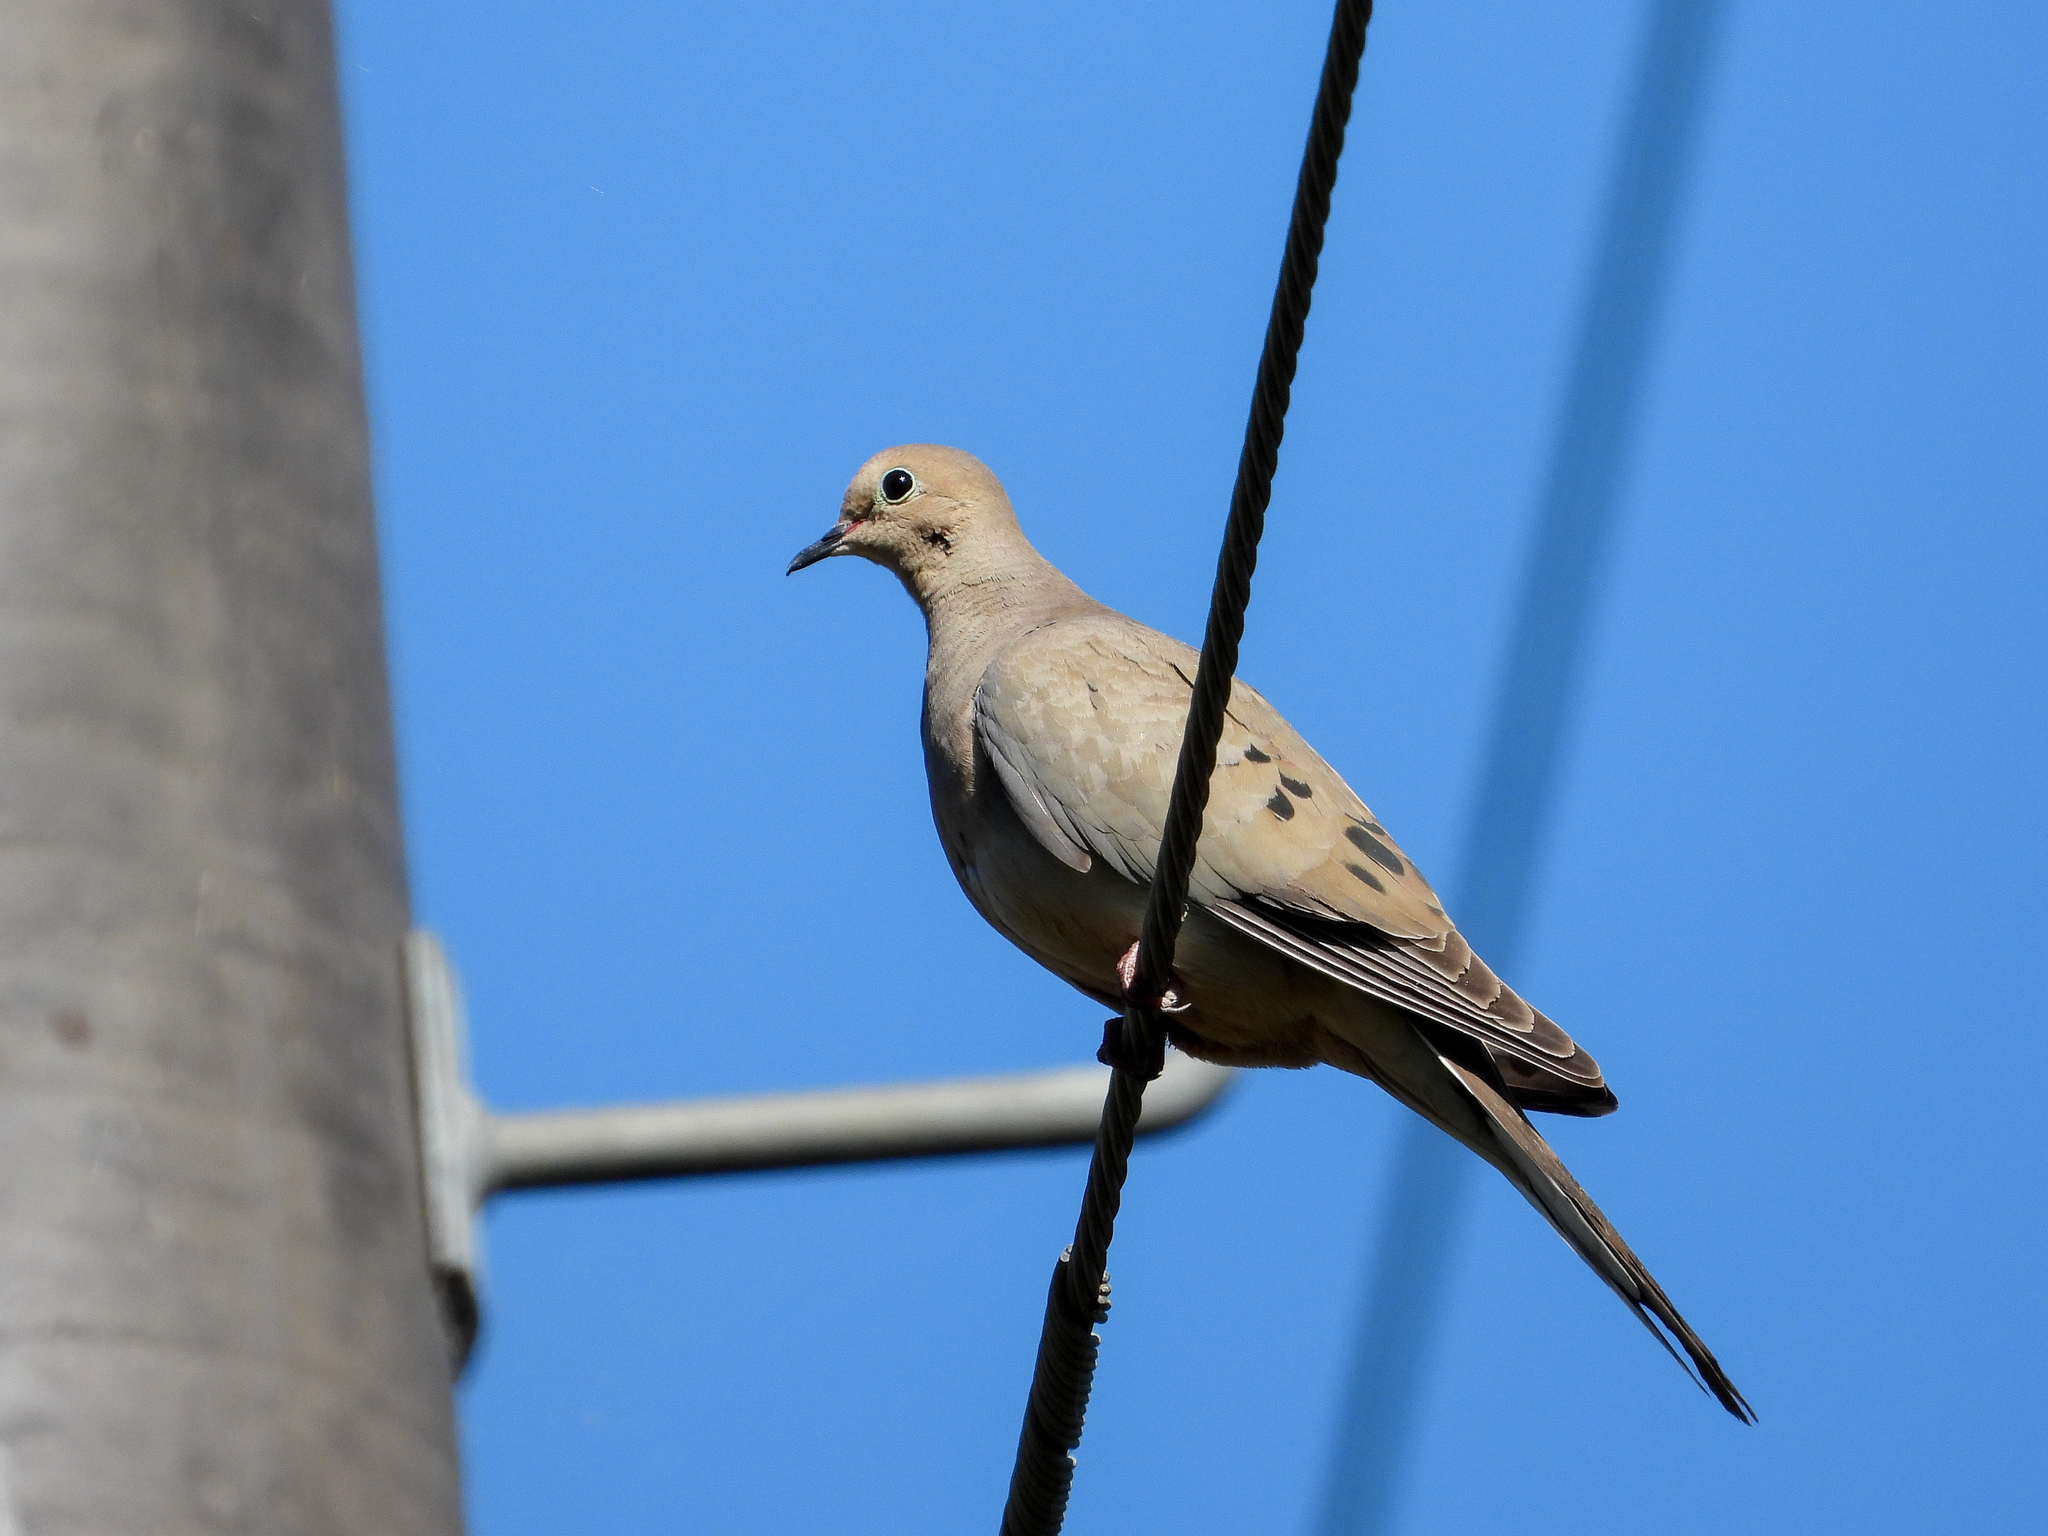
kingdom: Animalia
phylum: Chordata
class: Aves
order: Columbiformes
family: Columbidae
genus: Zenaida
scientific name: Zenaida macroura
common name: Mourning dove
